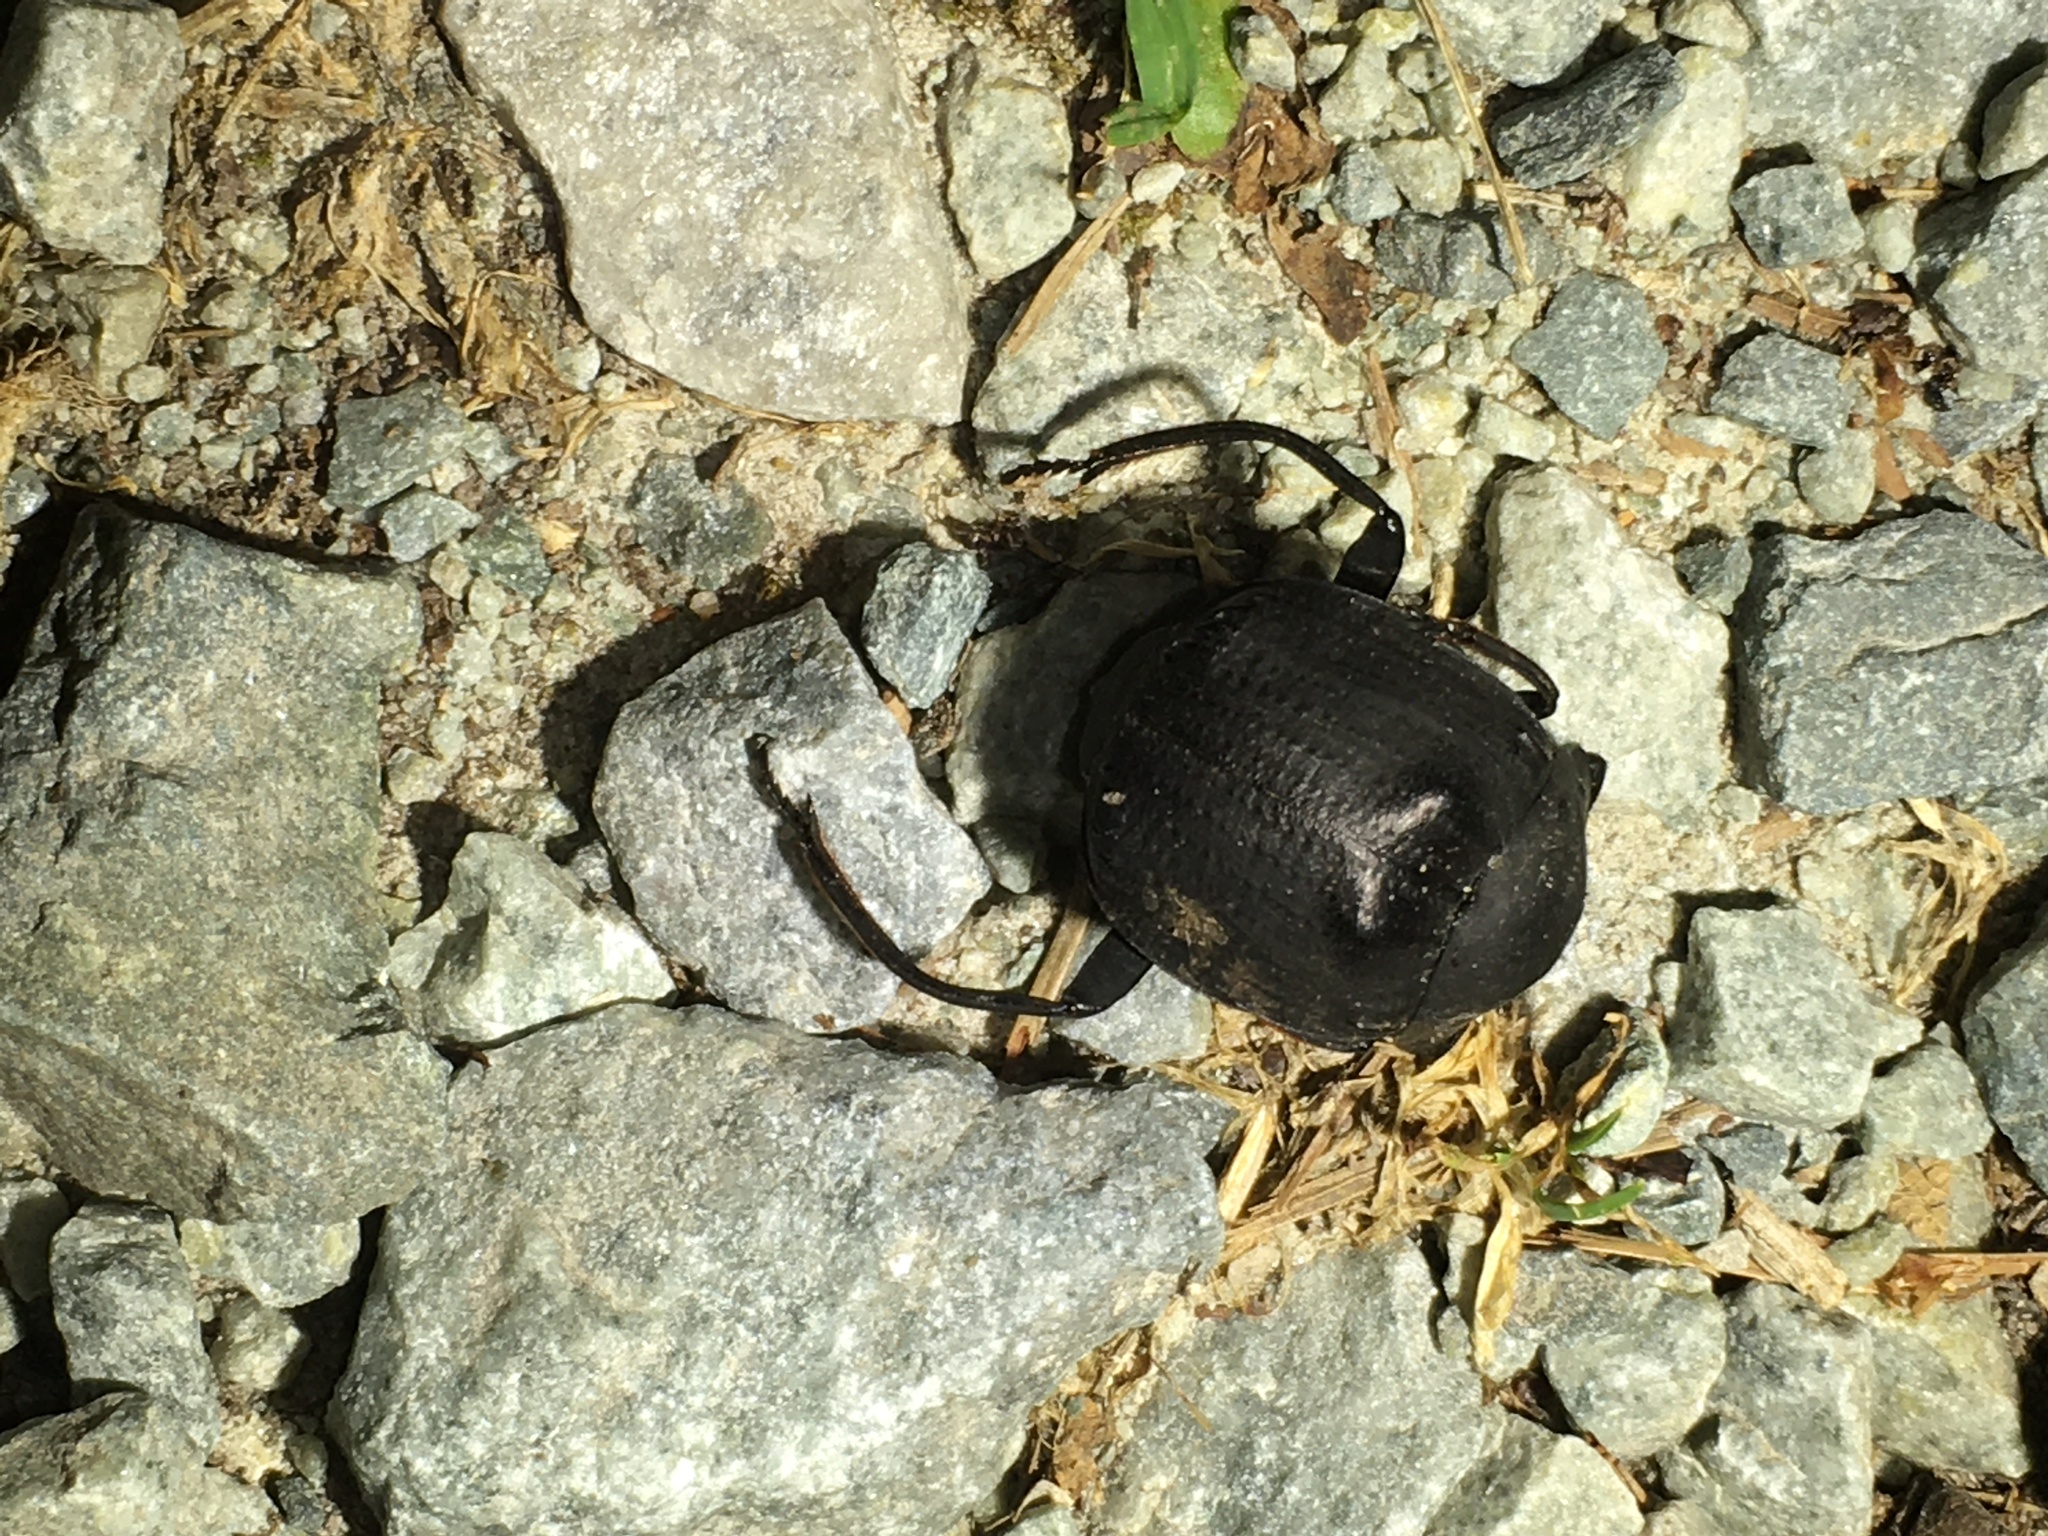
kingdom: Animalia
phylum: Arthropoda
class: Insecta
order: Coleoptera
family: Scarabaeidae
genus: Deltochilum
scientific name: Deltochilum gibbosum
